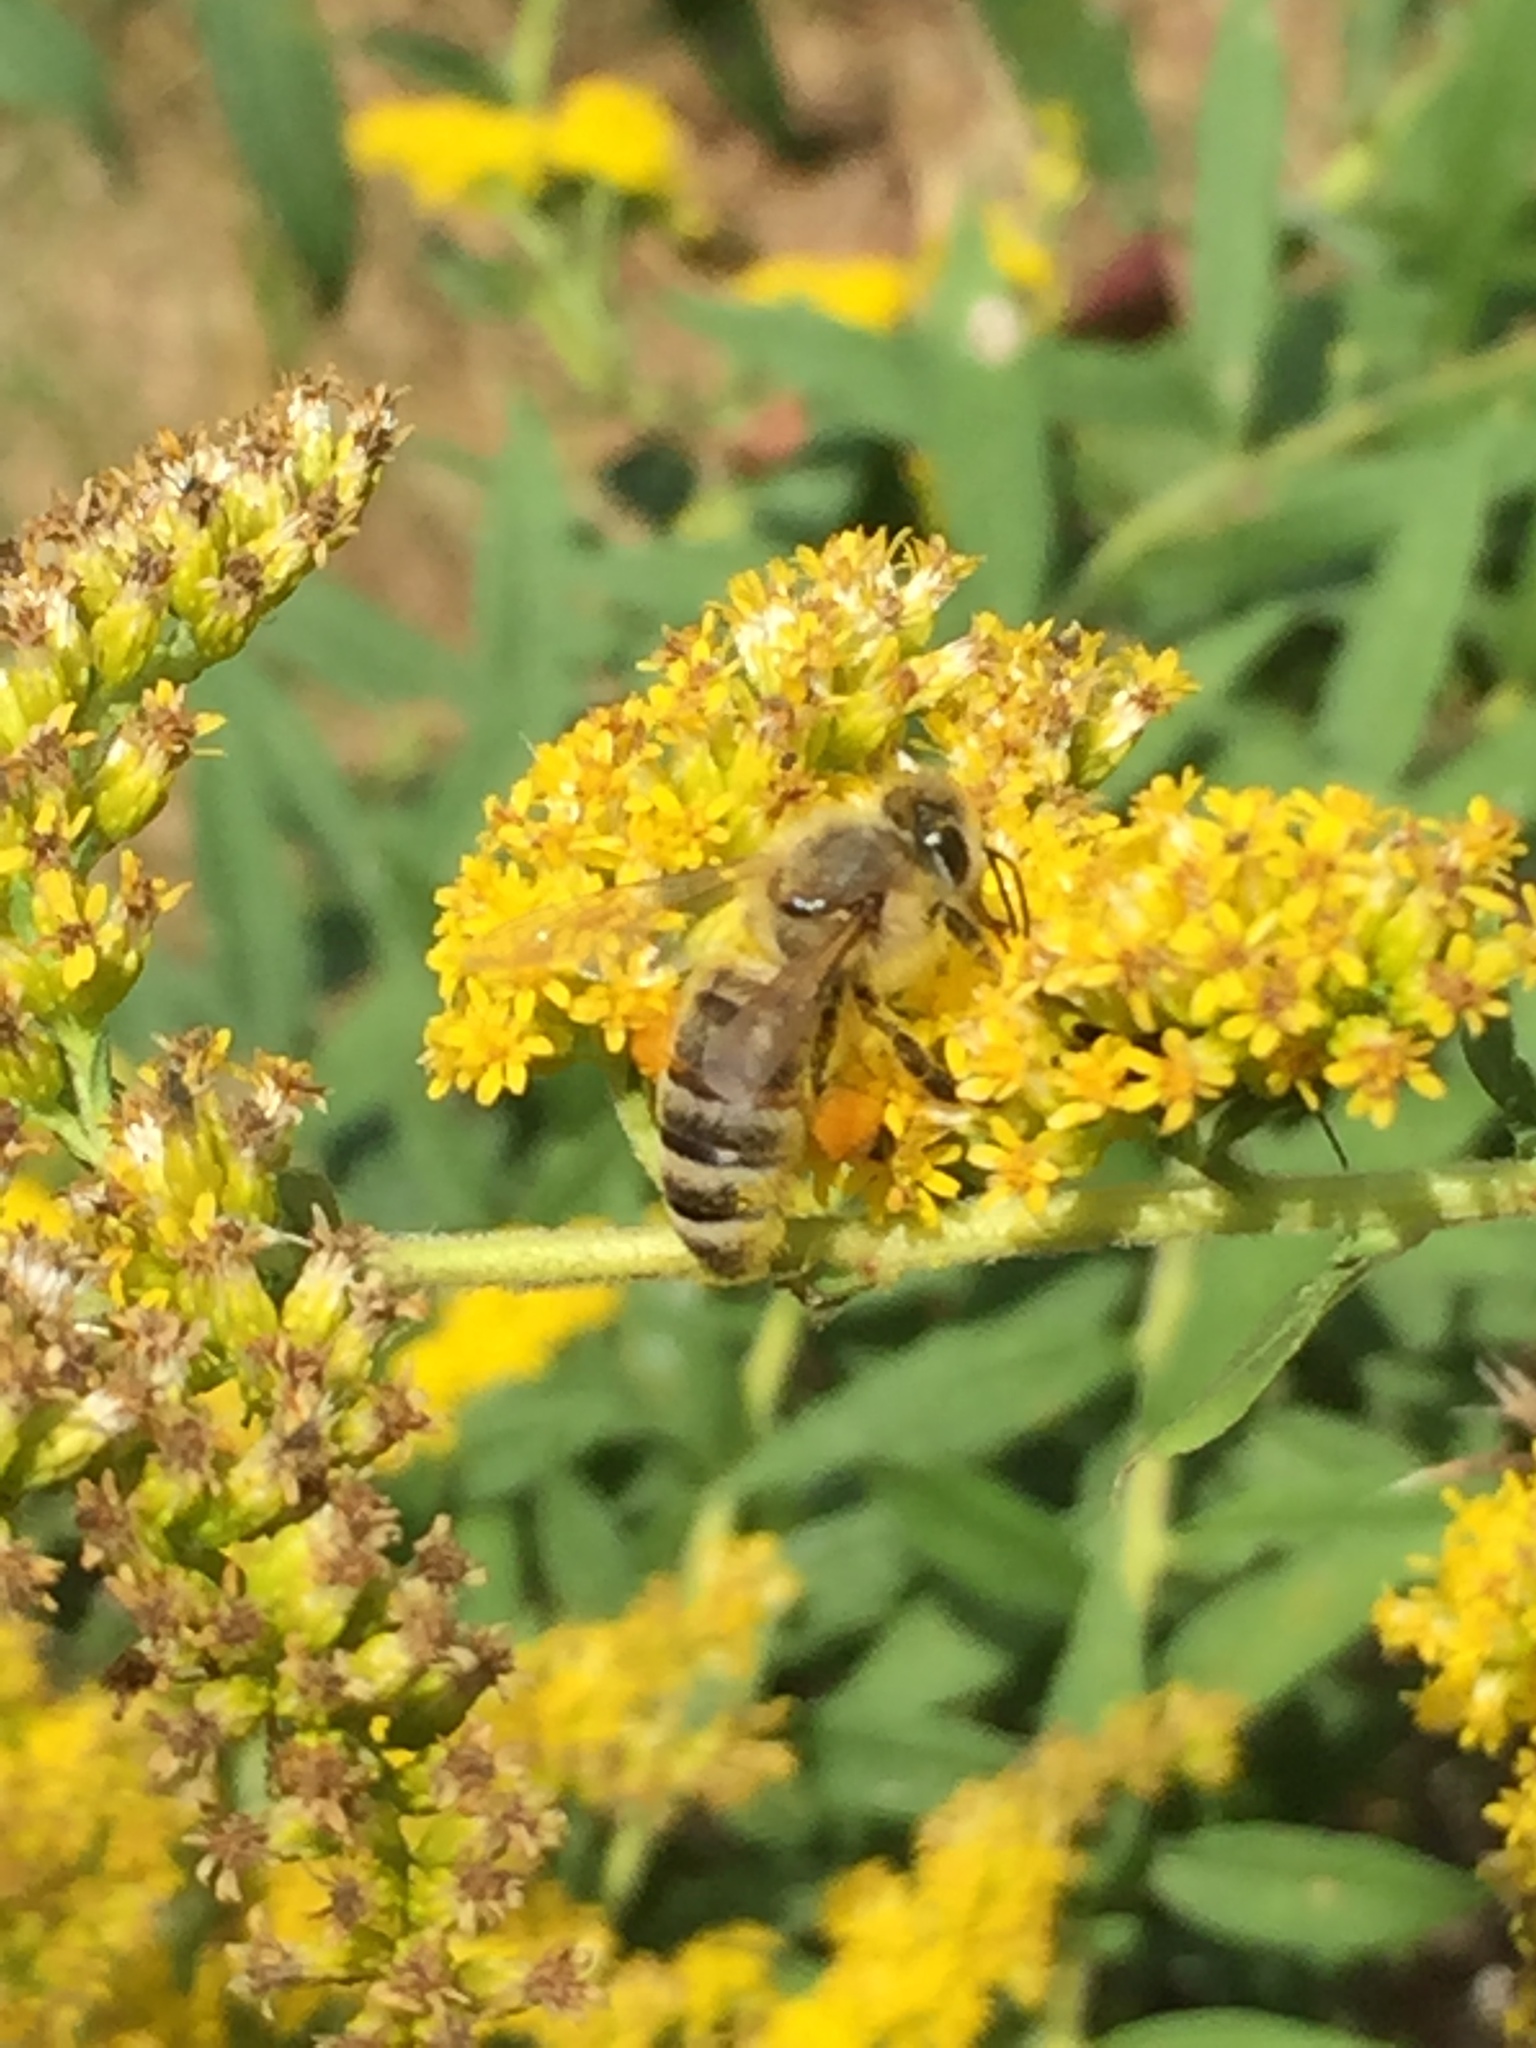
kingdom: Animalia
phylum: Arthropoda
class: Insecta
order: Hymenoptera
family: Apidae
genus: Apis
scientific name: Apis mellifera
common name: Honey bee
